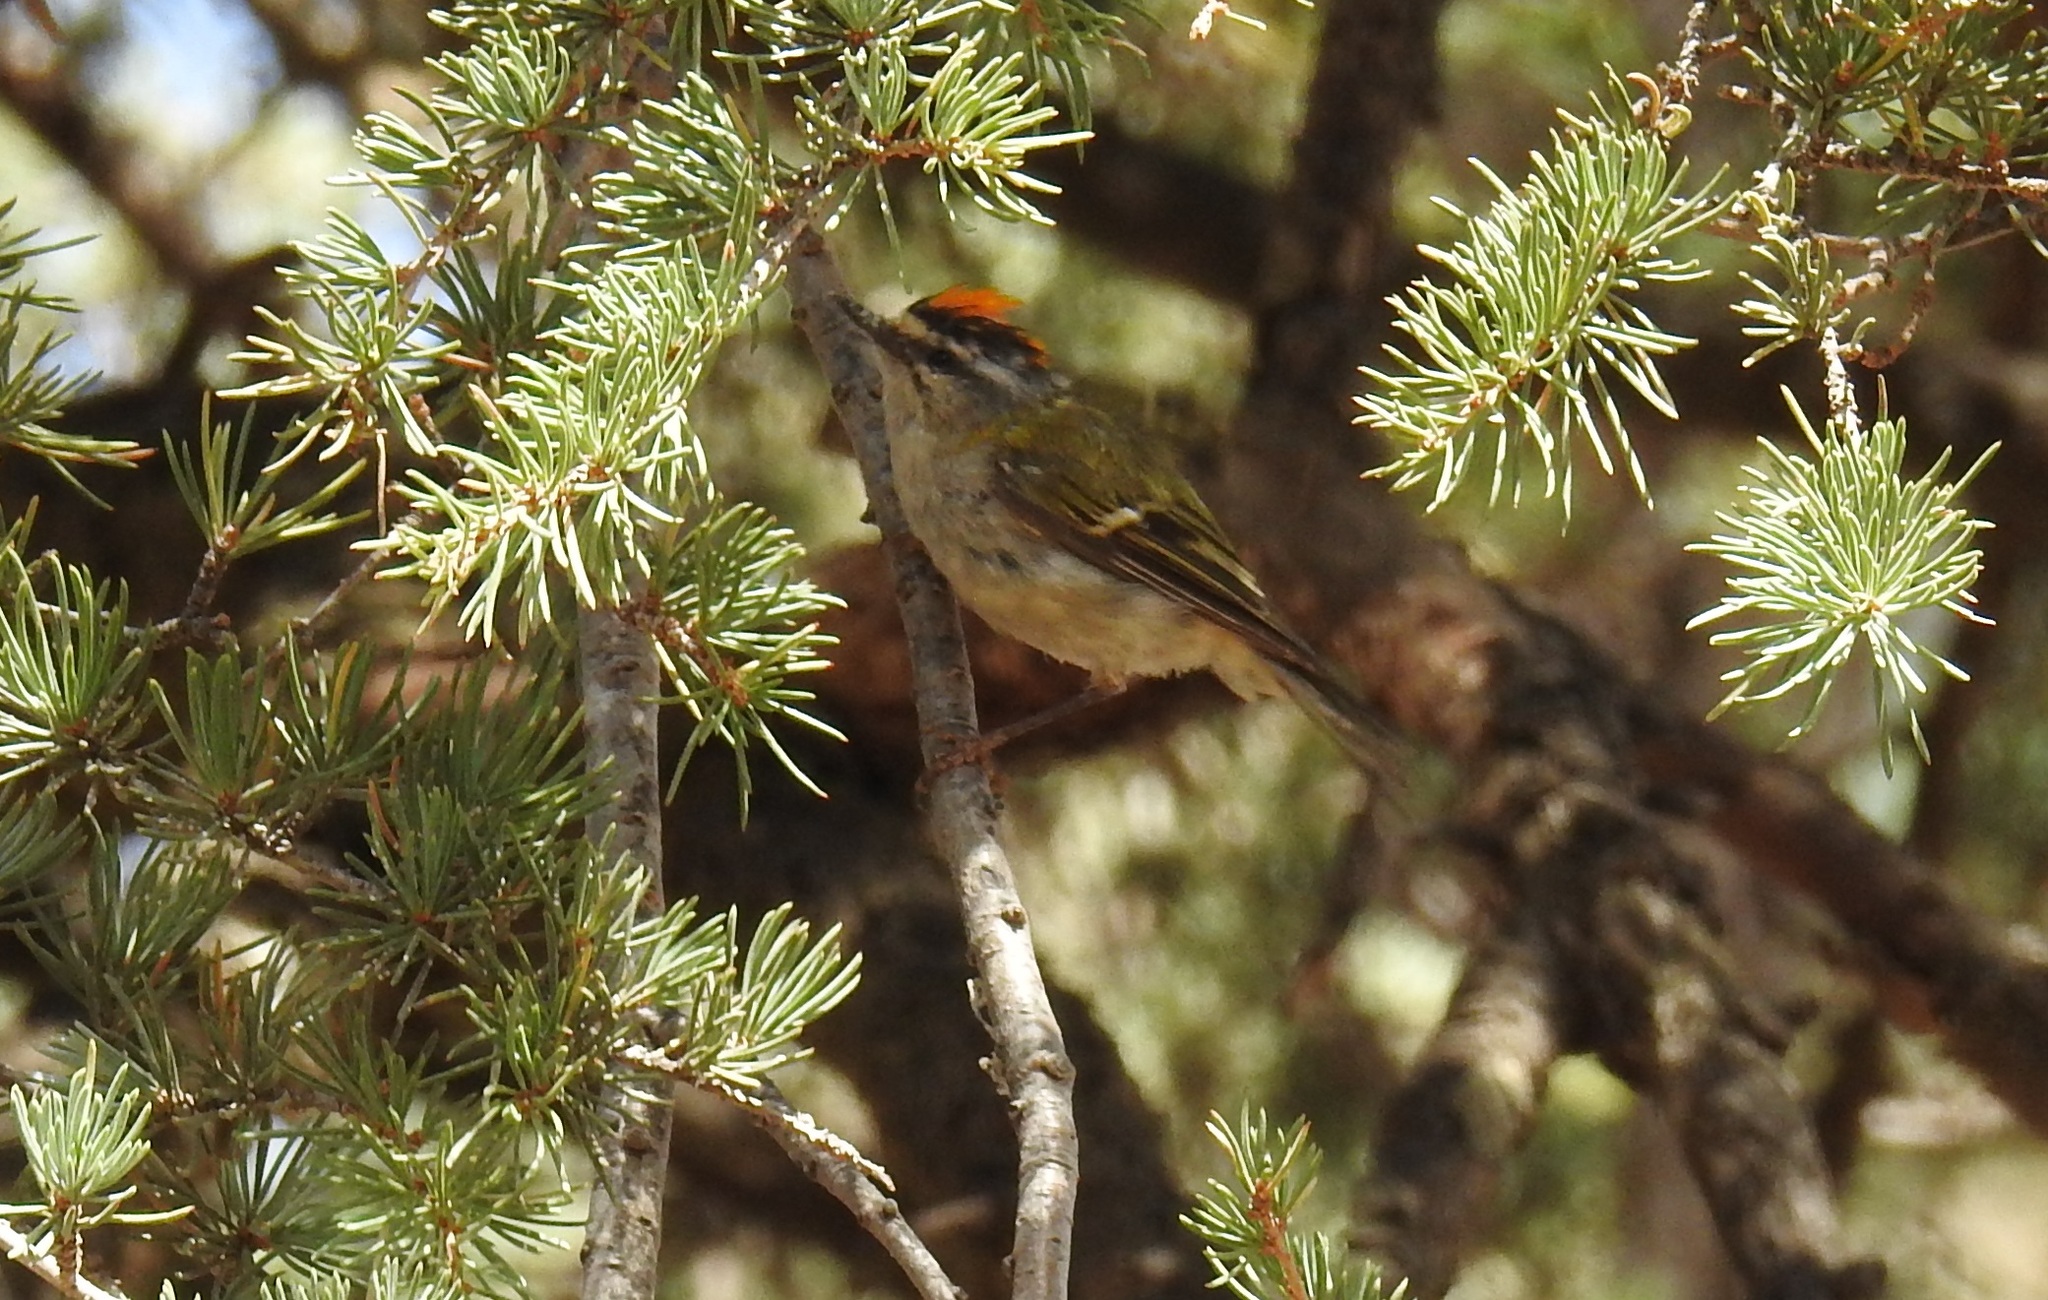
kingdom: Animalia
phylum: Chordata
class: Aves
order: Passeriformes
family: Regulidae
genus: Regulus
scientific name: Regulus ignicapilla
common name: Firecrest
